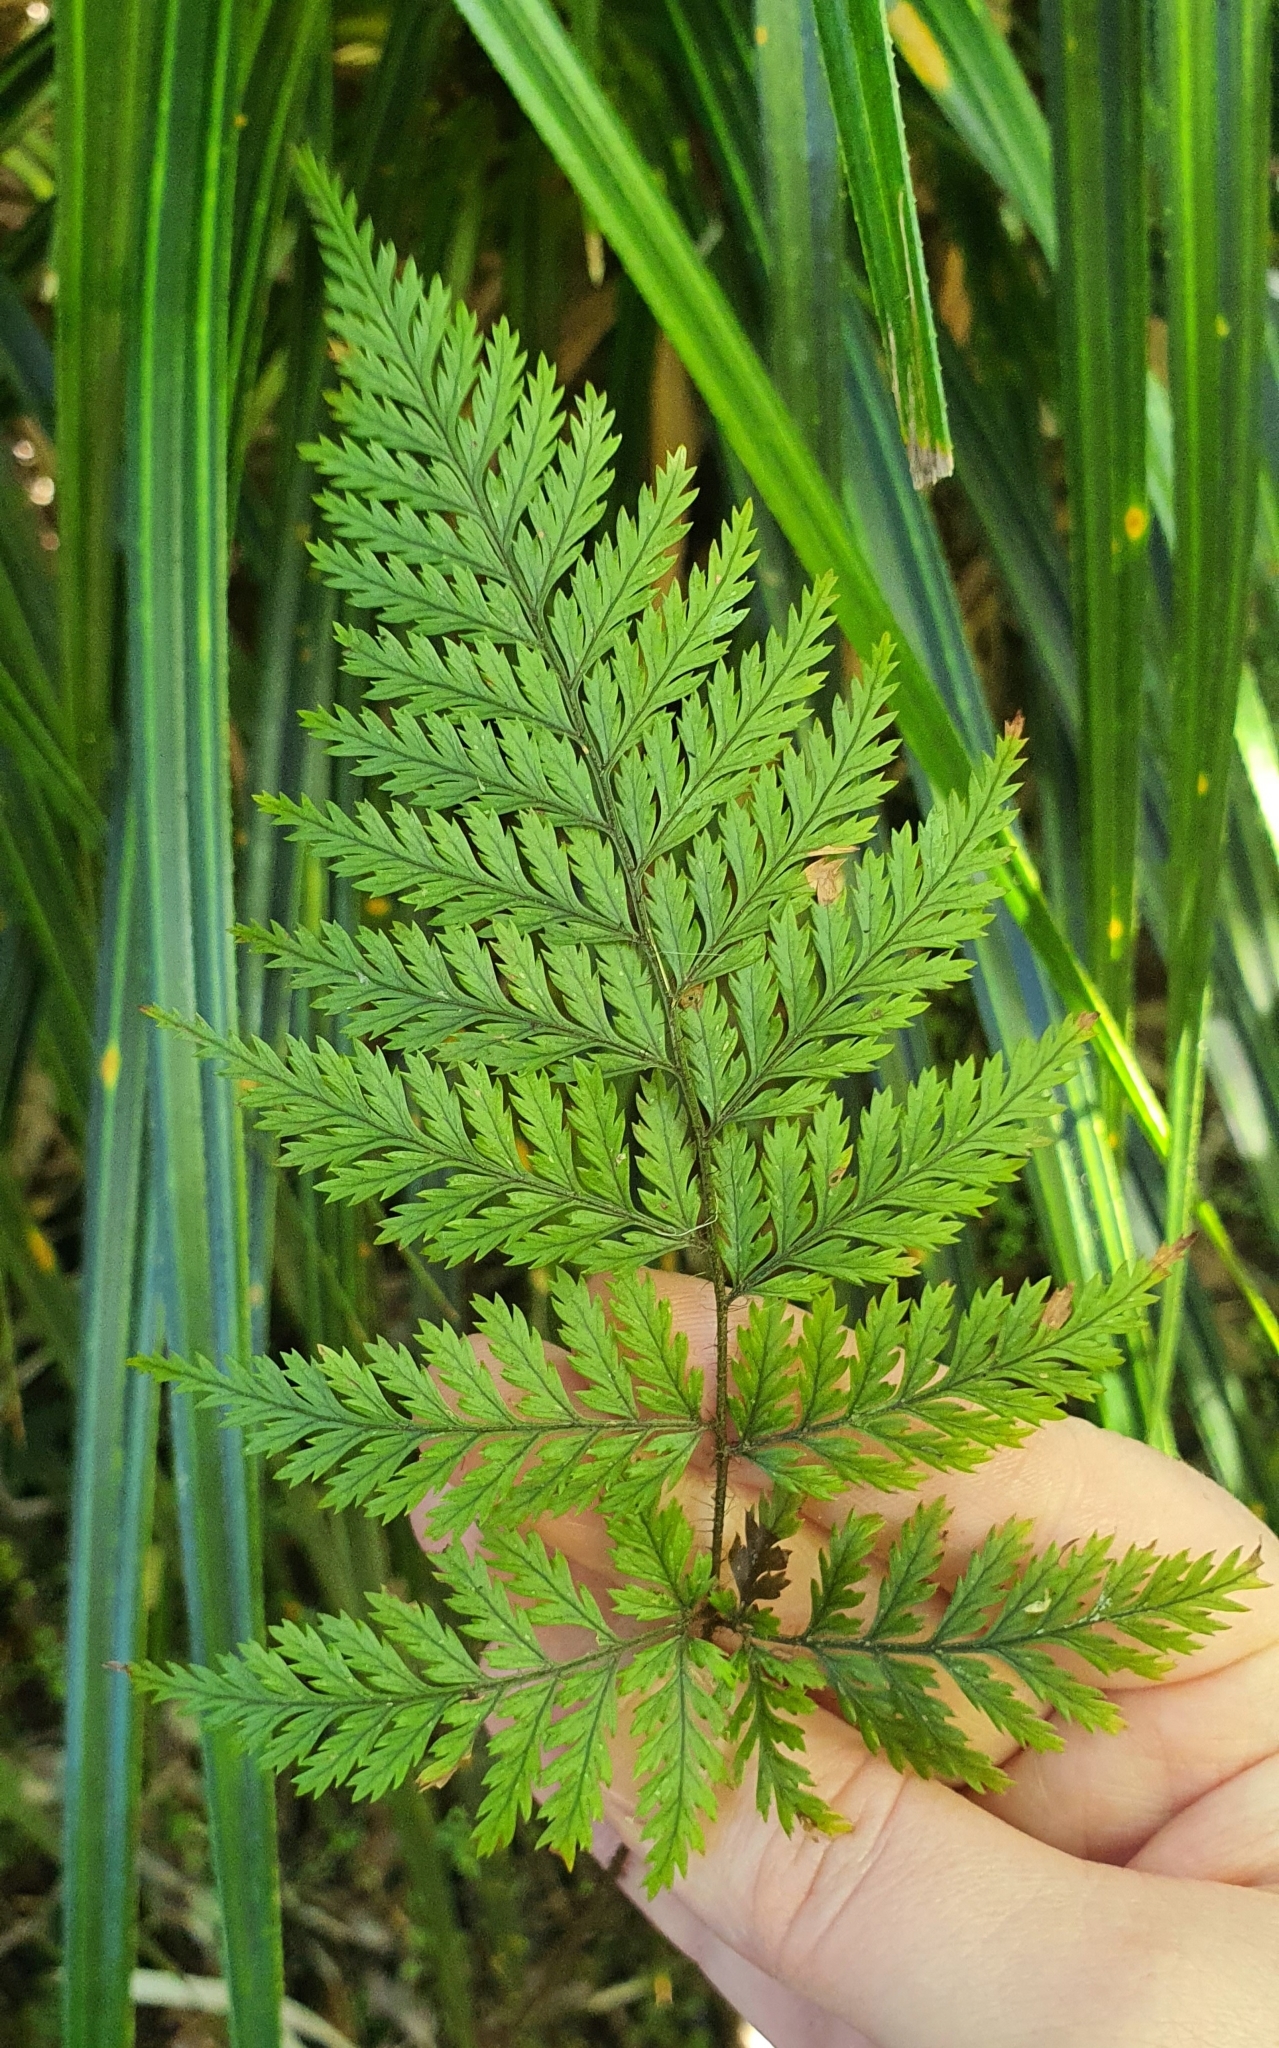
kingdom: Plantae
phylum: Tracheophyta
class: Polypodiopsida
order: Polypodiales
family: Dryopteridaceae
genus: Lastreopsis
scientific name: Lastreopsis hispida
